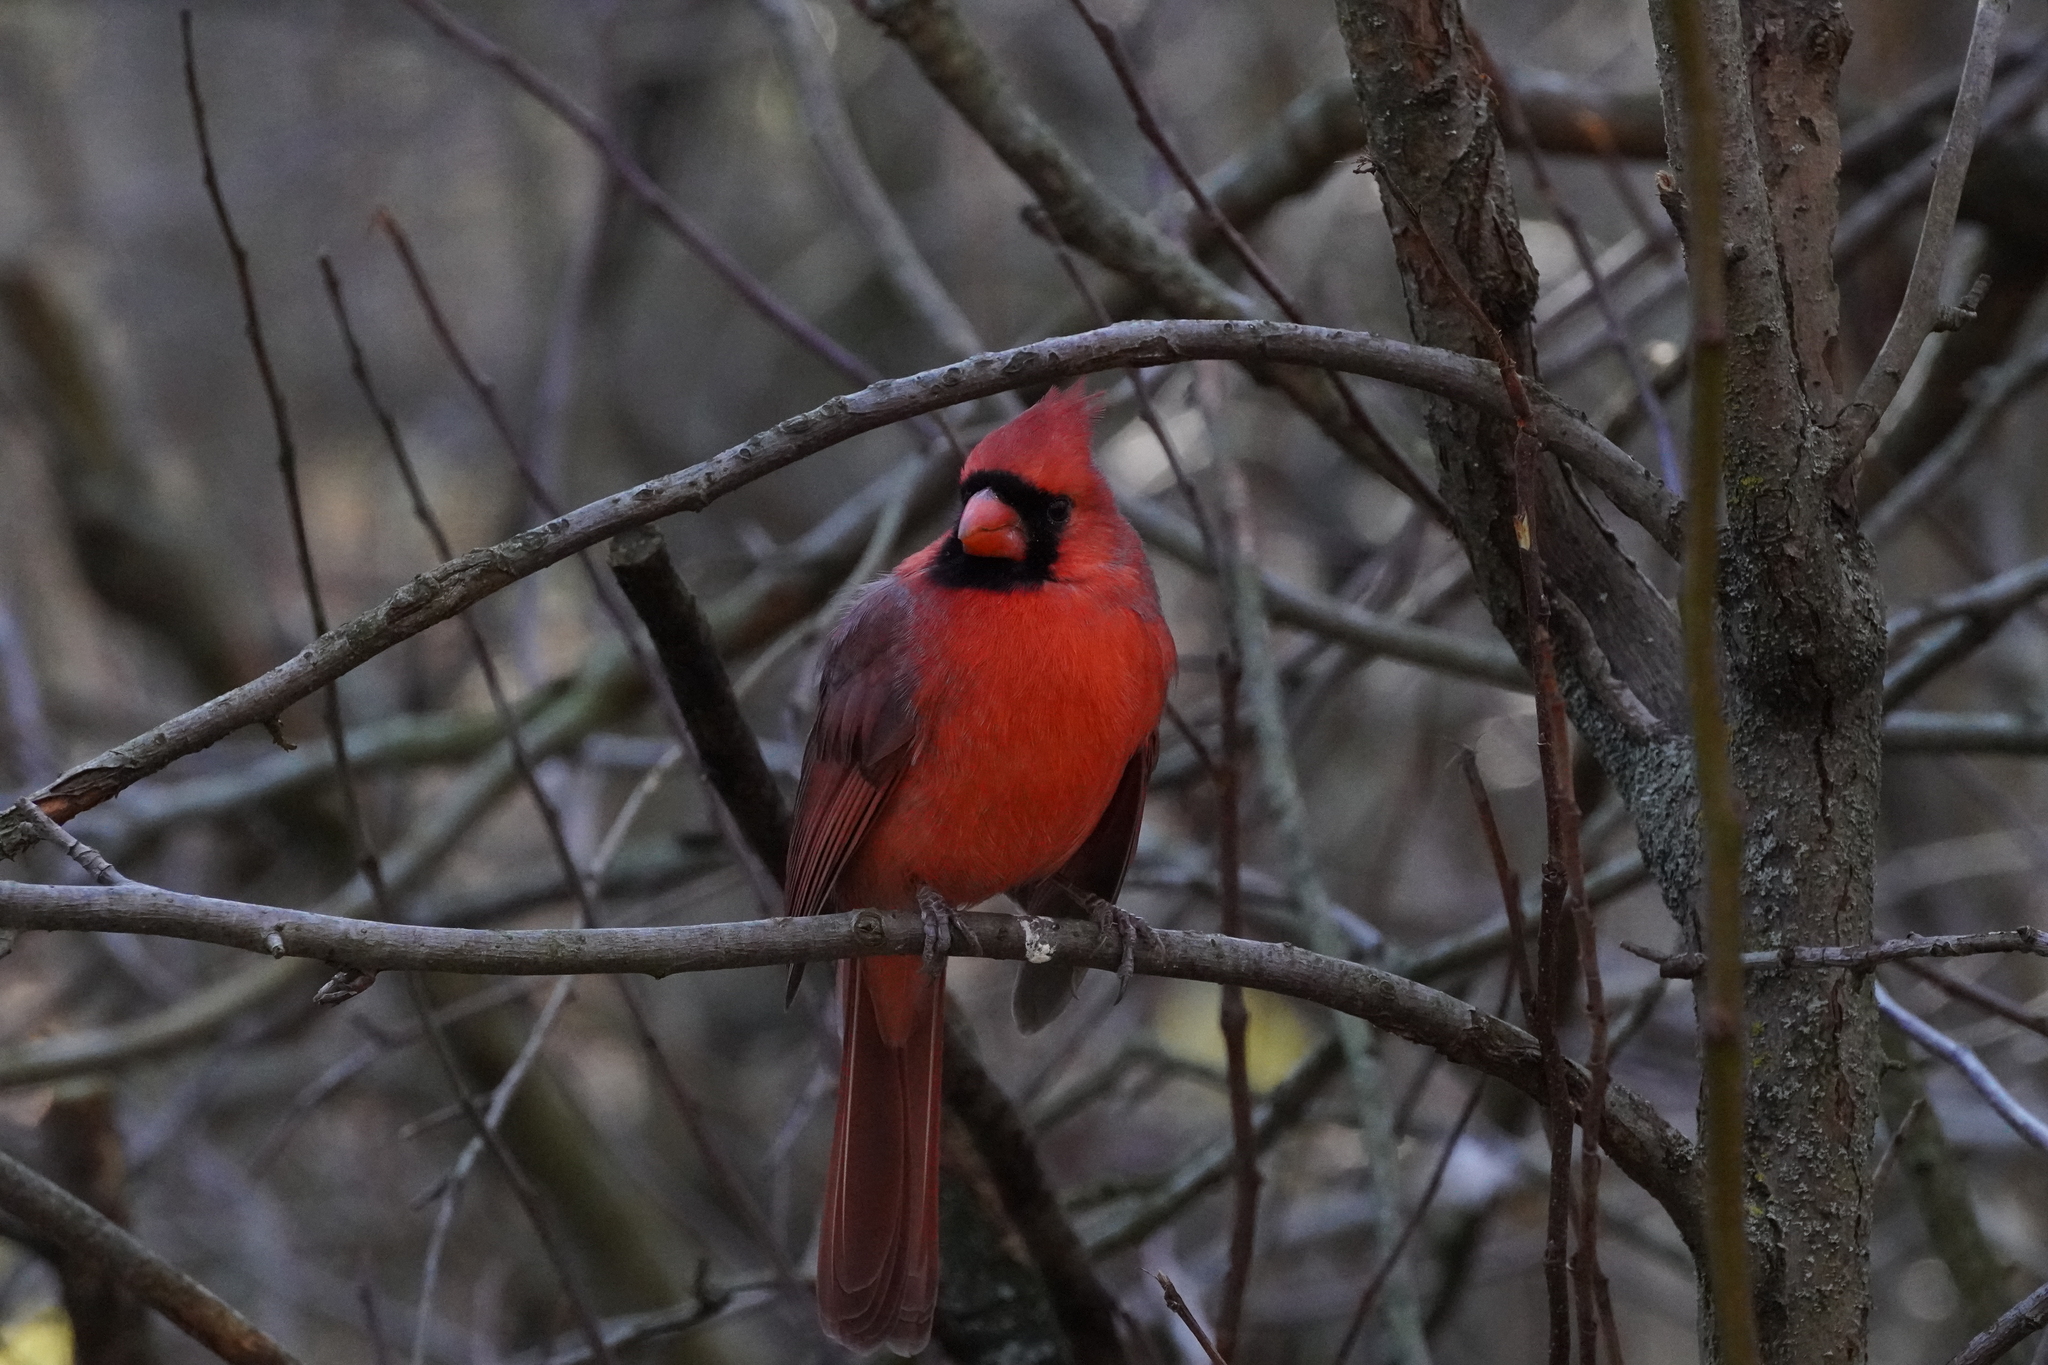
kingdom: Animalia
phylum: Chordata
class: Aves
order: Passeriformes
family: Cardinalidae
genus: Cardinalis
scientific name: Cardinalis cardinalis
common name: Northern cardinal
